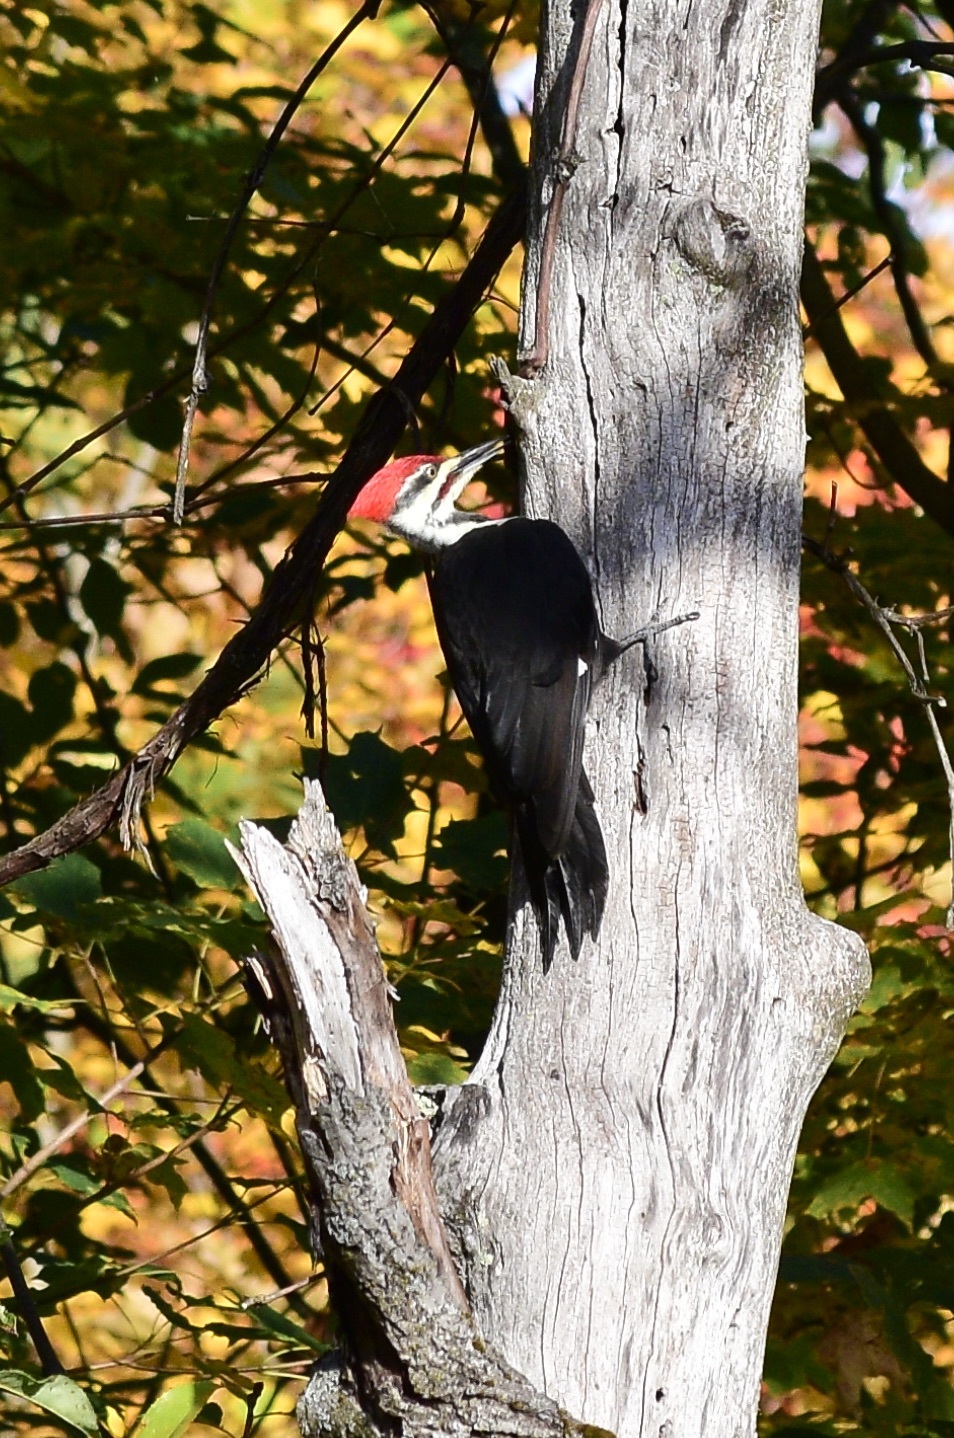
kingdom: Animalia
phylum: Chordata
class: Aves
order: Piciformes
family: Picidae
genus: Dryocopus
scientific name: Dryocopus pileatus
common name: Pileated woodpecker
